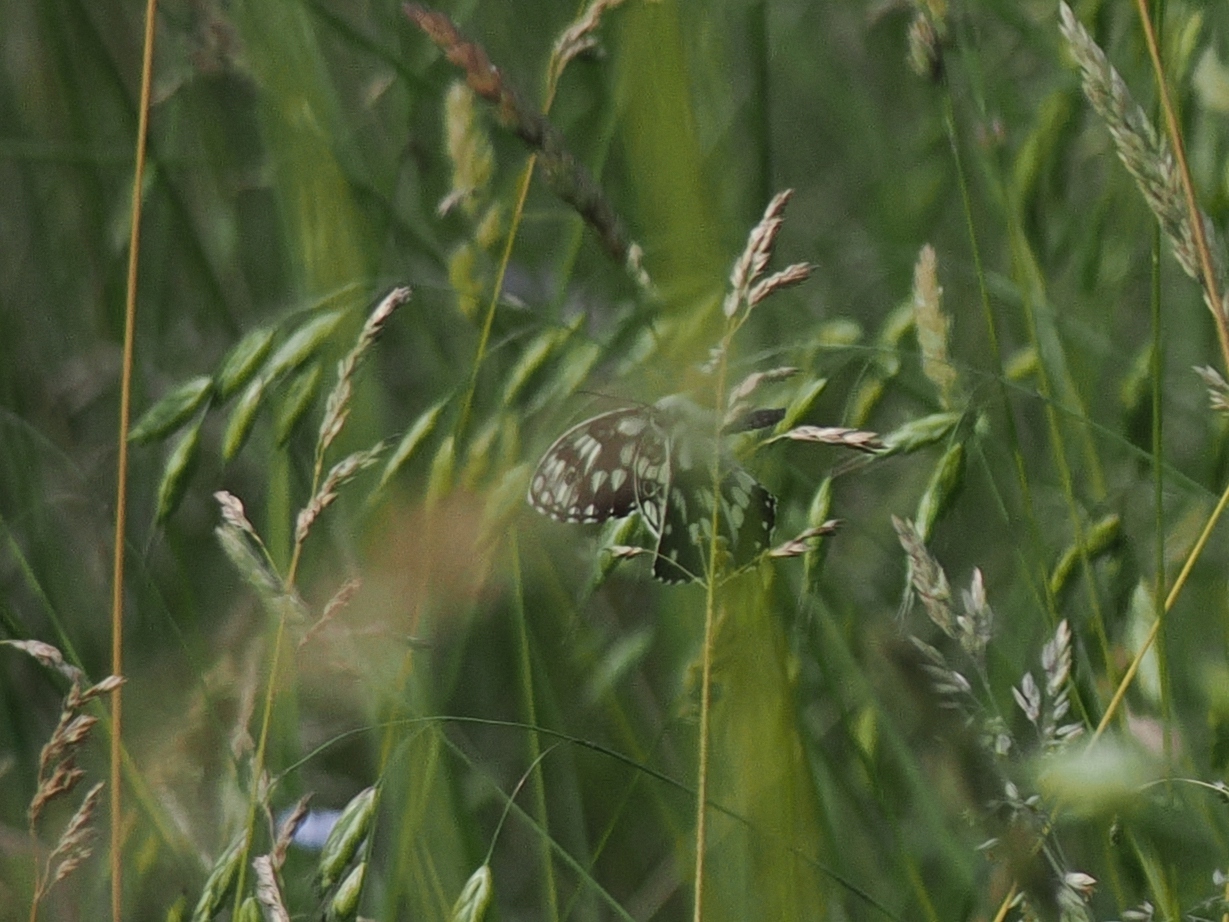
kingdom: Animalia
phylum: Arthropoda
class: Insecta
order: Lepidoptera
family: Nymphalidae
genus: Melanargia
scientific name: Melanargia galathea
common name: Marbled white
